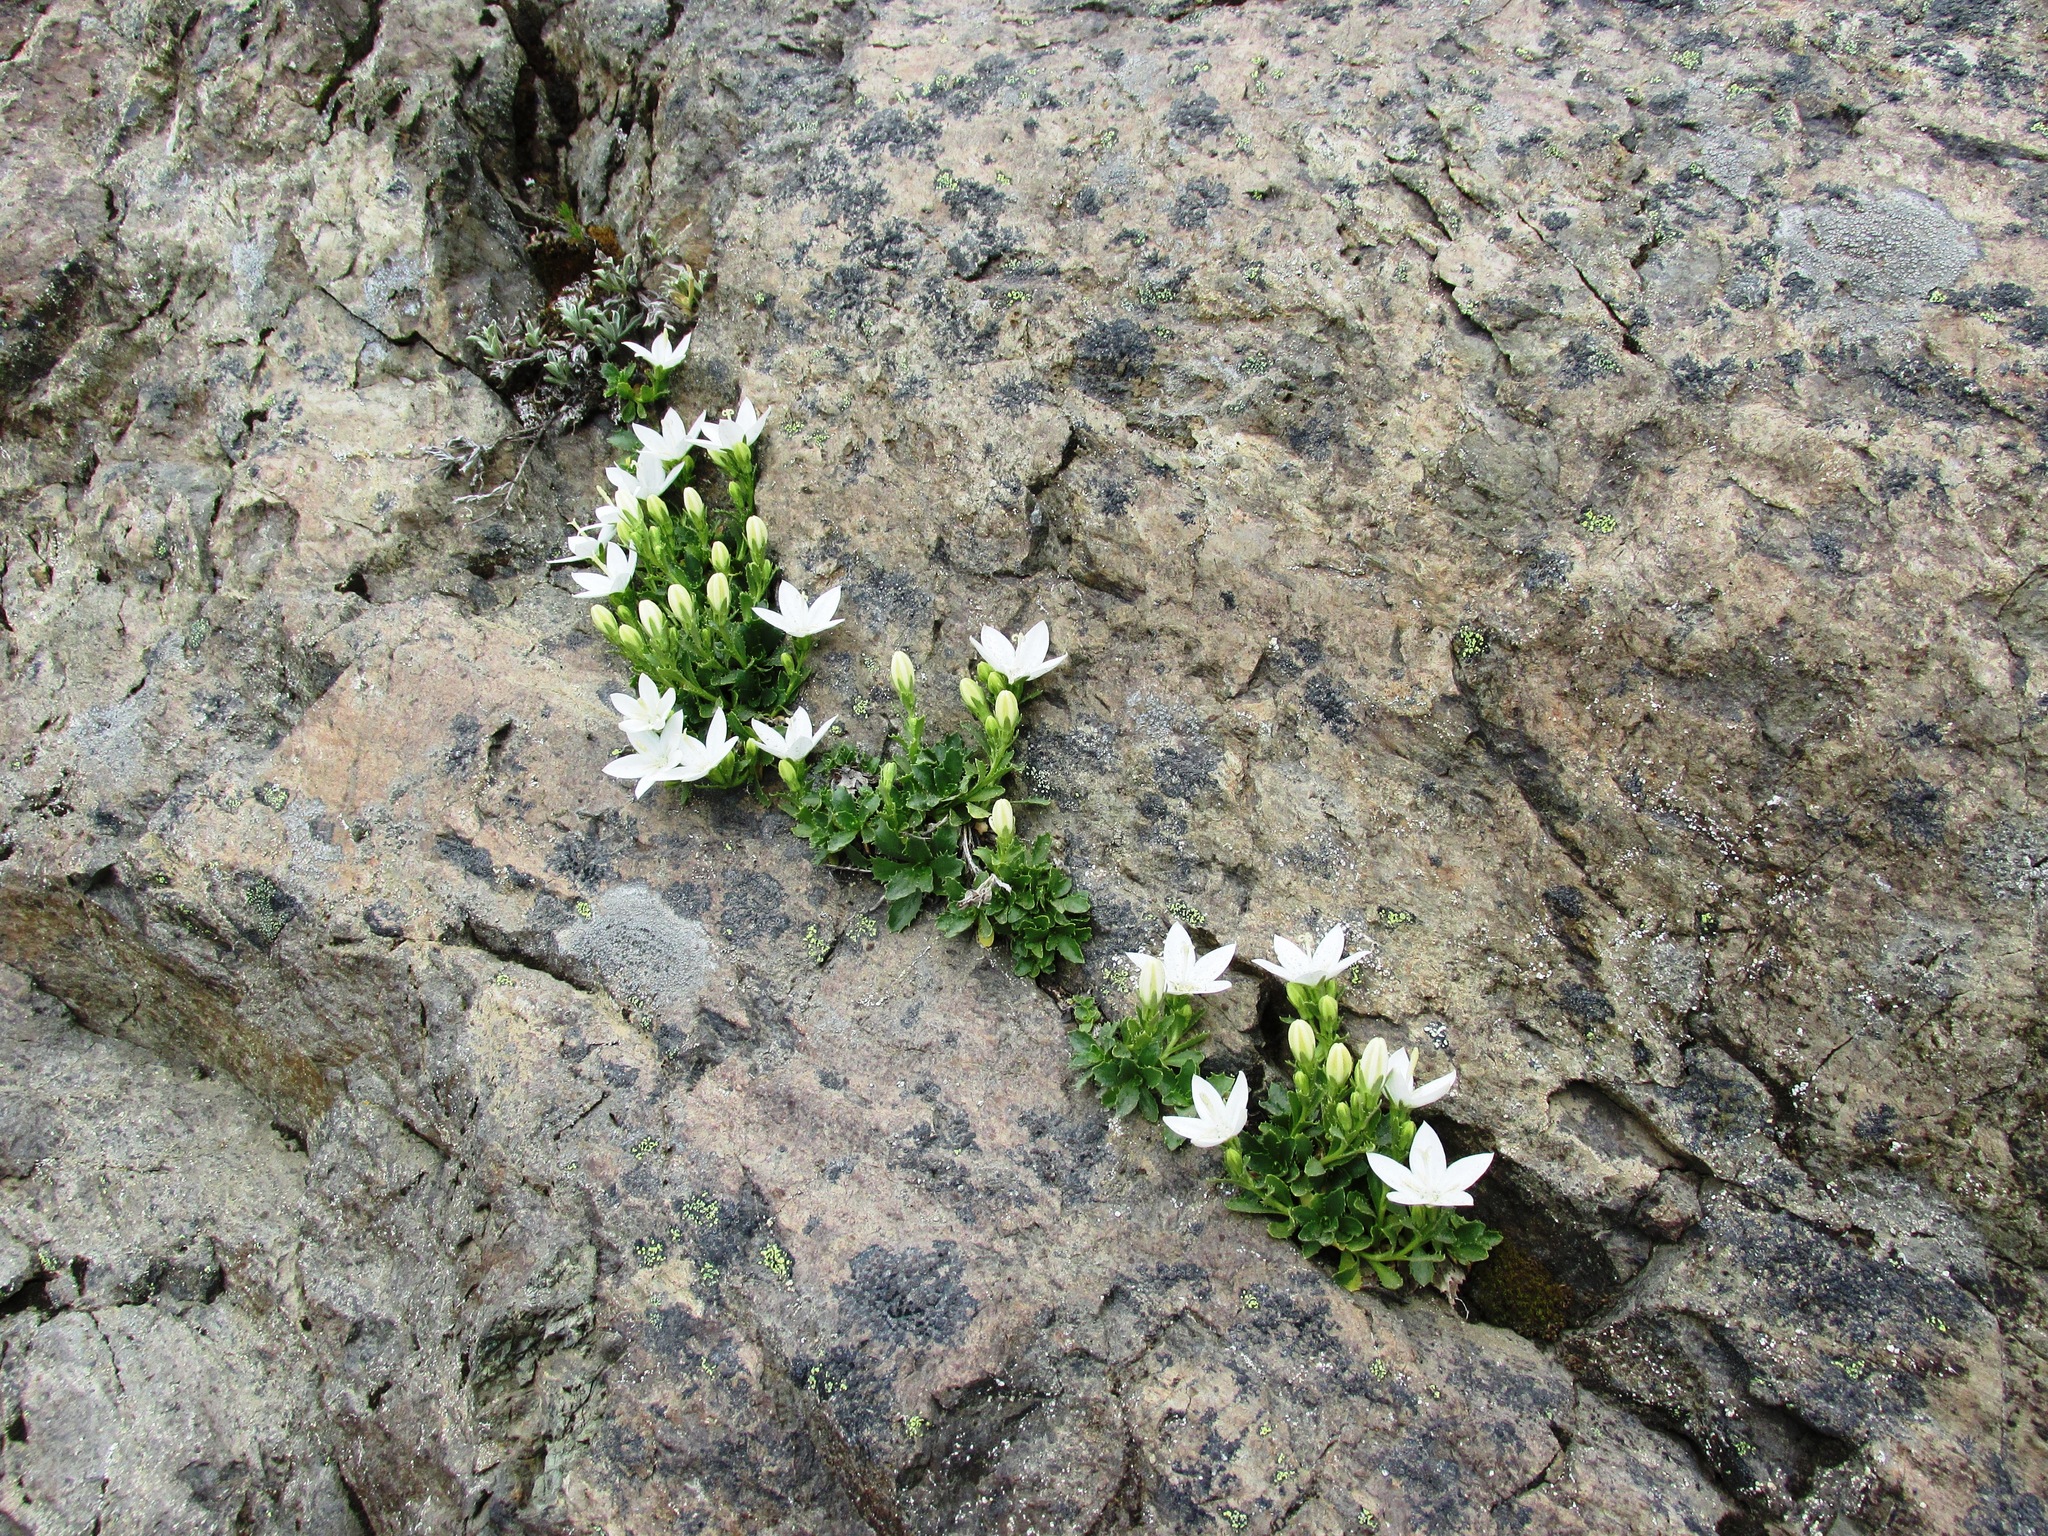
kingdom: Plantae
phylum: Tracheophyta
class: Magnoliopsida
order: Asterales
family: Campanulaceae
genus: Campanula
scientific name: Campanula piperi
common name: Olympic bellflower
